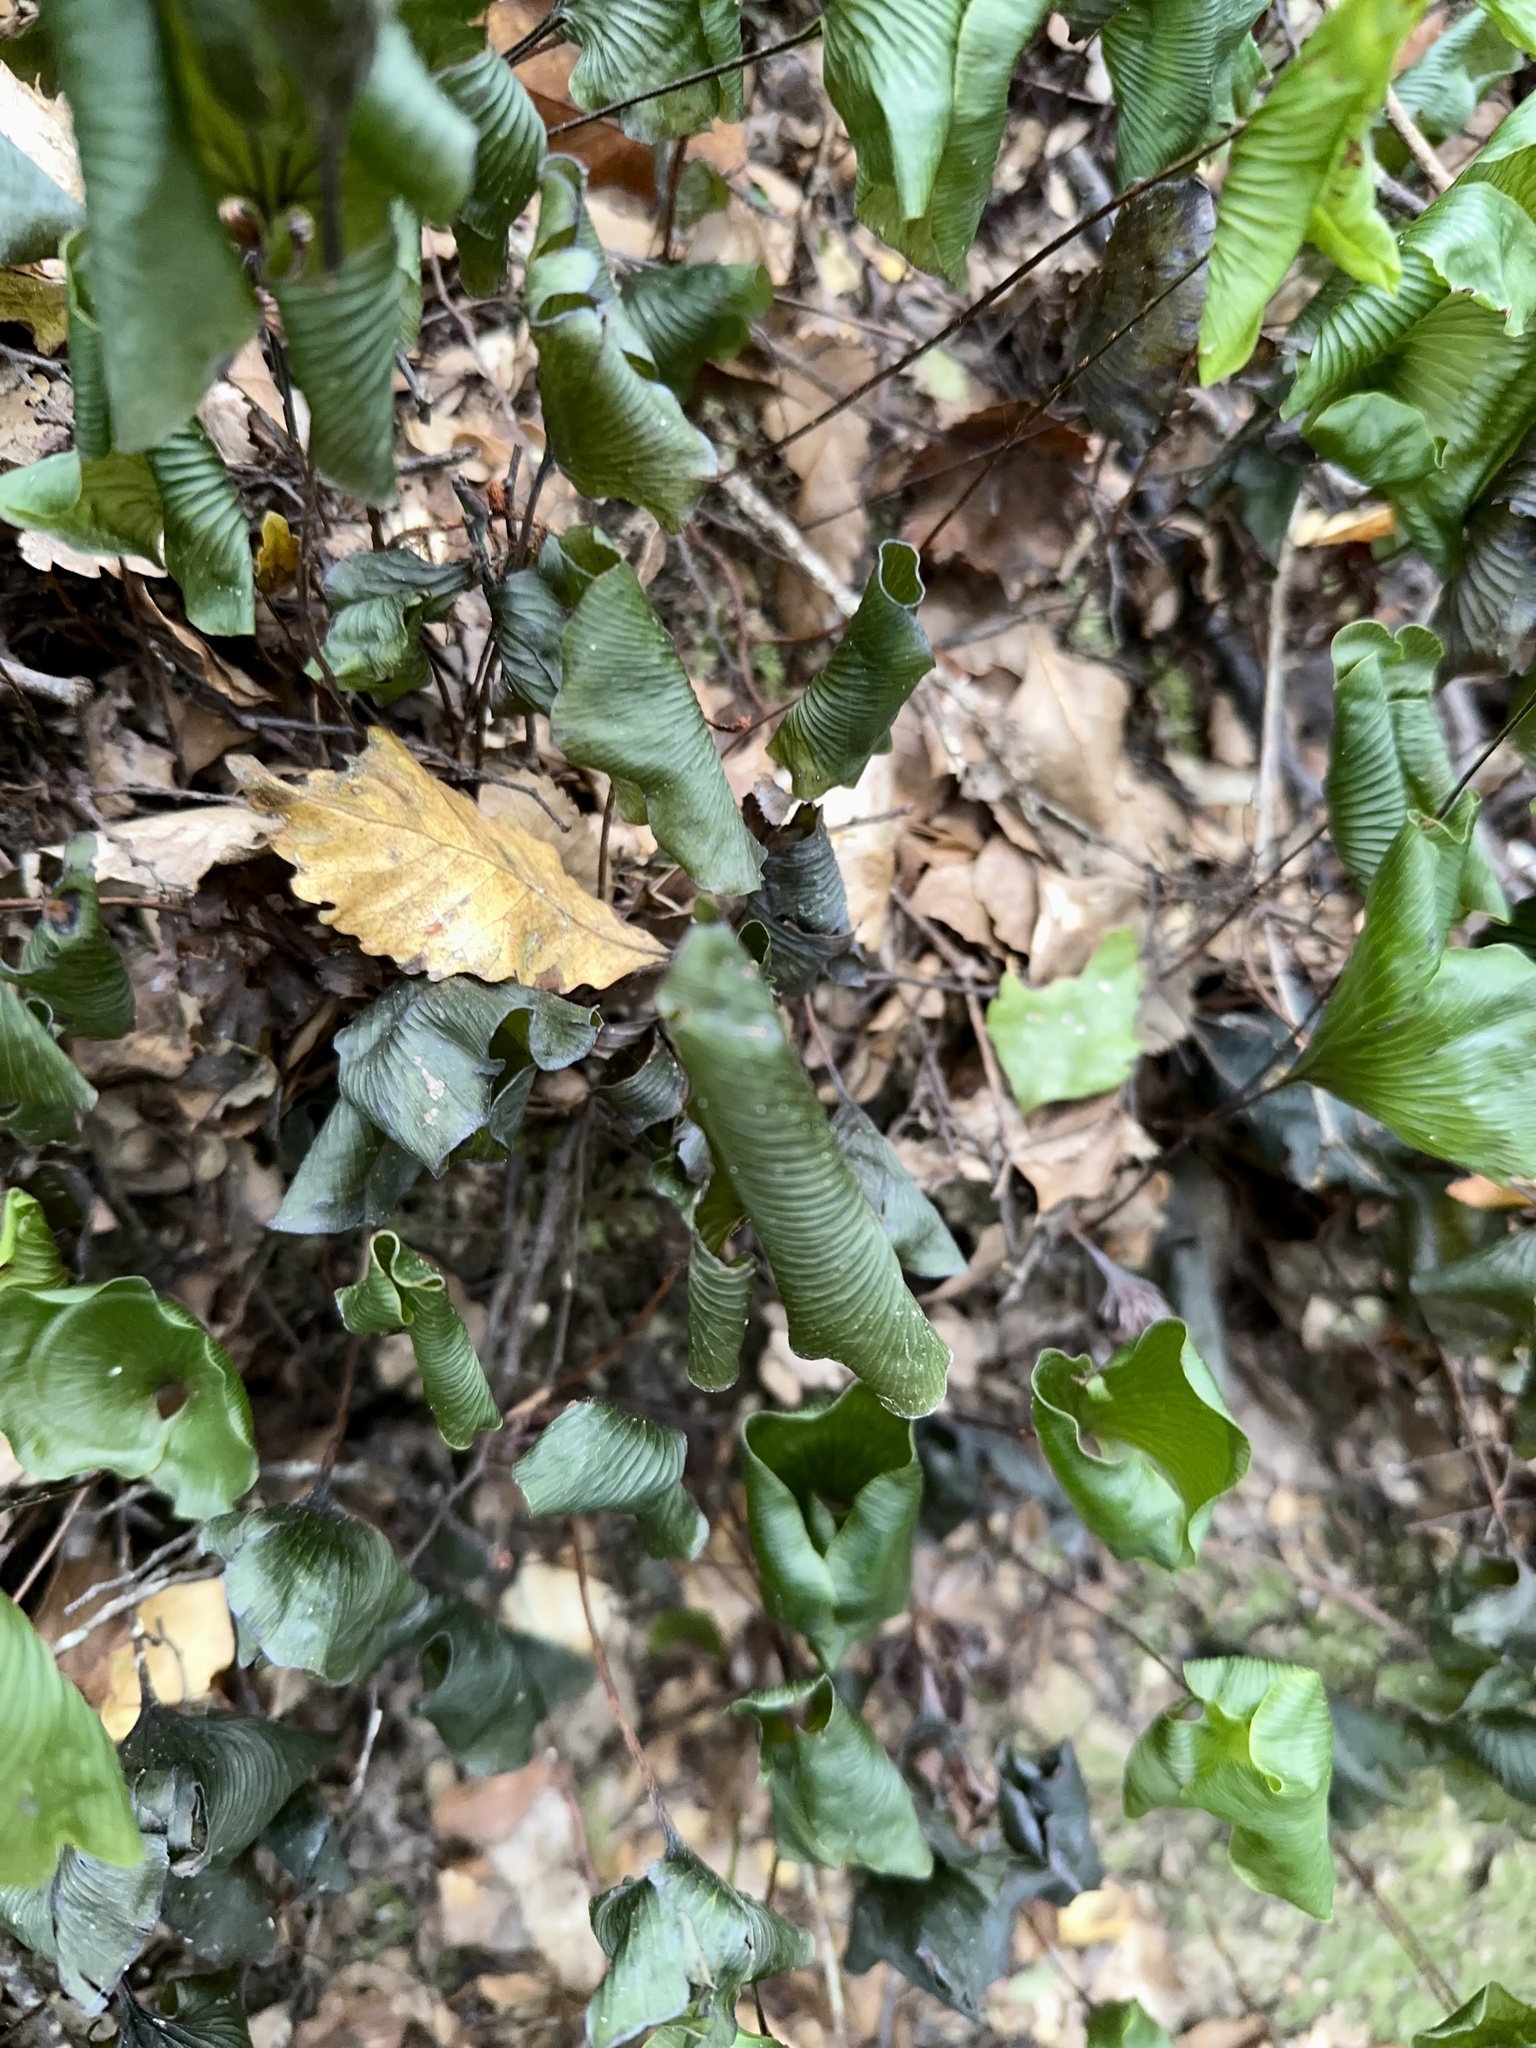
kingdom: Plantae
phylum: Tracheophyta
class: Polypodiopsida
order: Hymenophyllales
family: Hymenophyllaceae
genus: Hymenophyllum
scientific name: Hymenophyllum nephrophyllum
